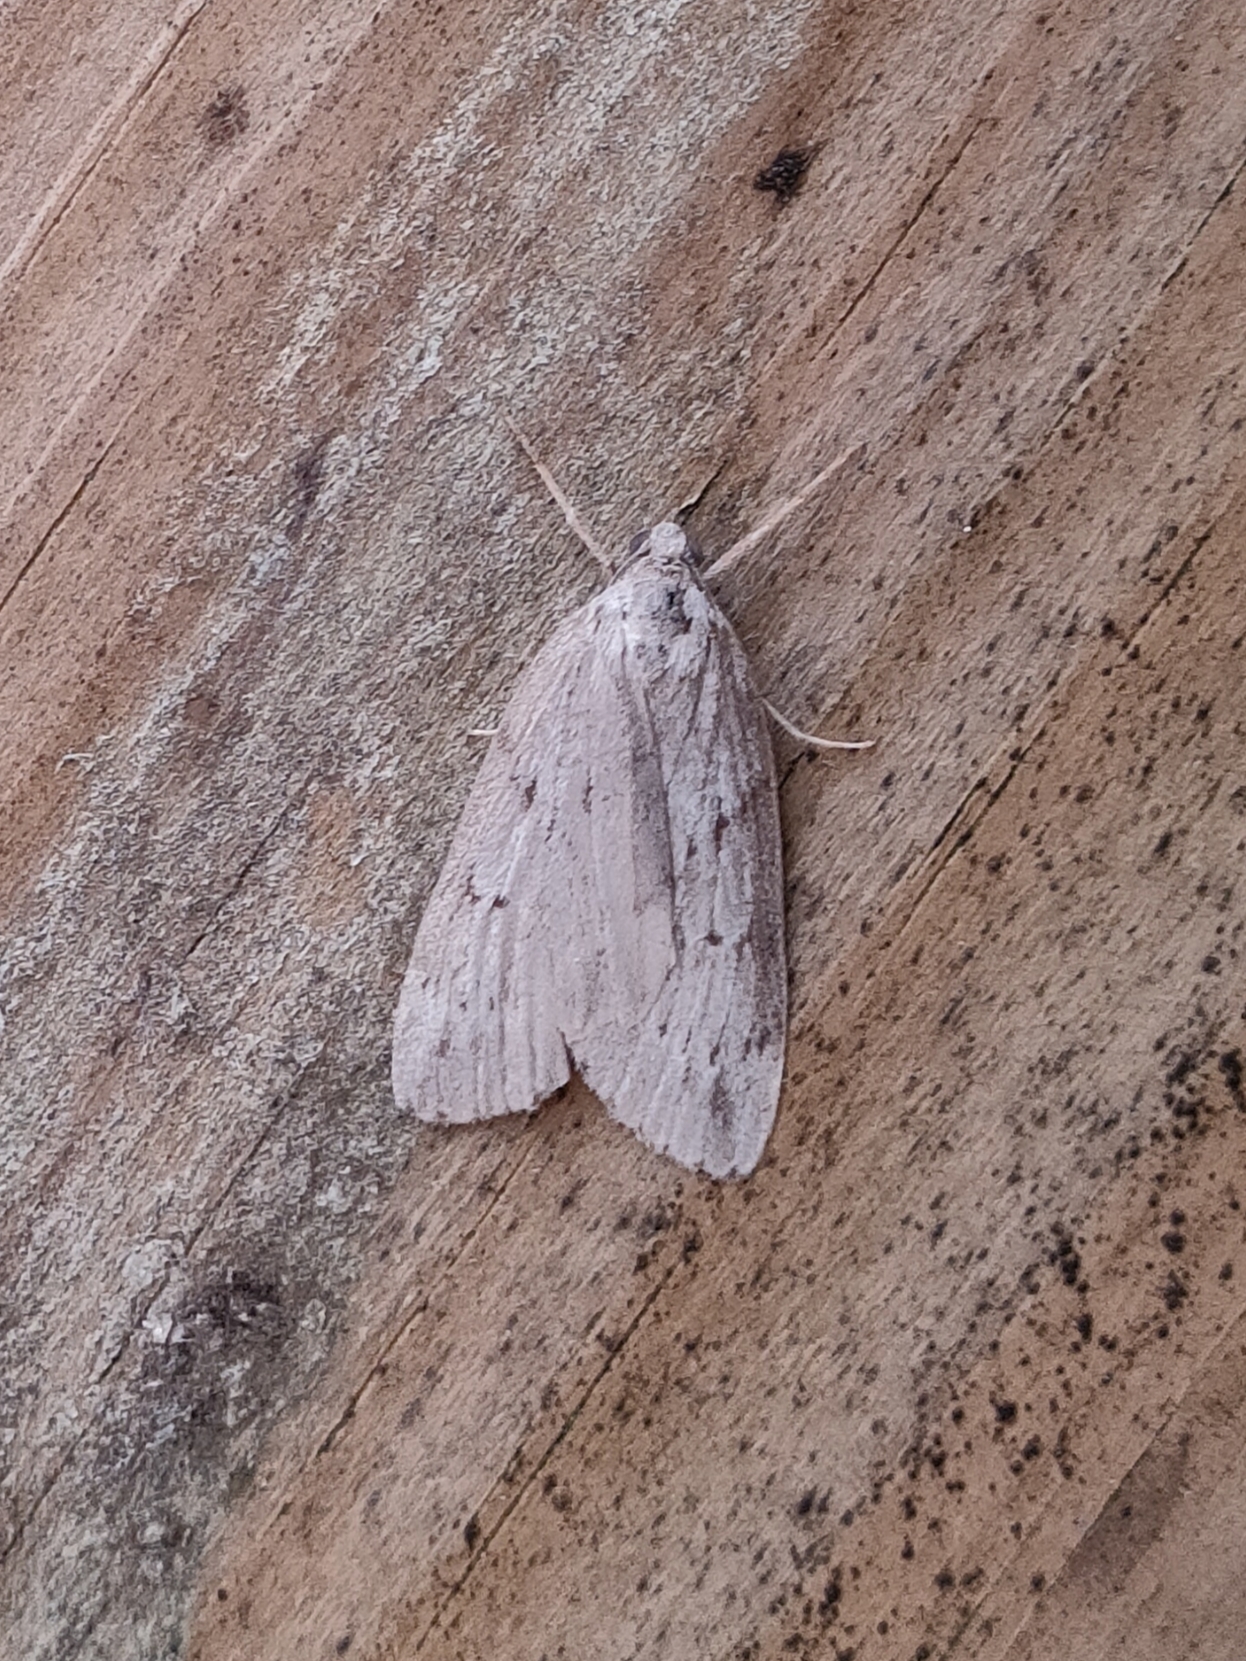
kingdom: Animalia
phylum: Arthropoda
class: Insecta
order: Lepidoptera
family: Geometridae
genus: Pachycnemia
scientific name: Pachycnemia hippocastanaria
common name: Horse chestnut
